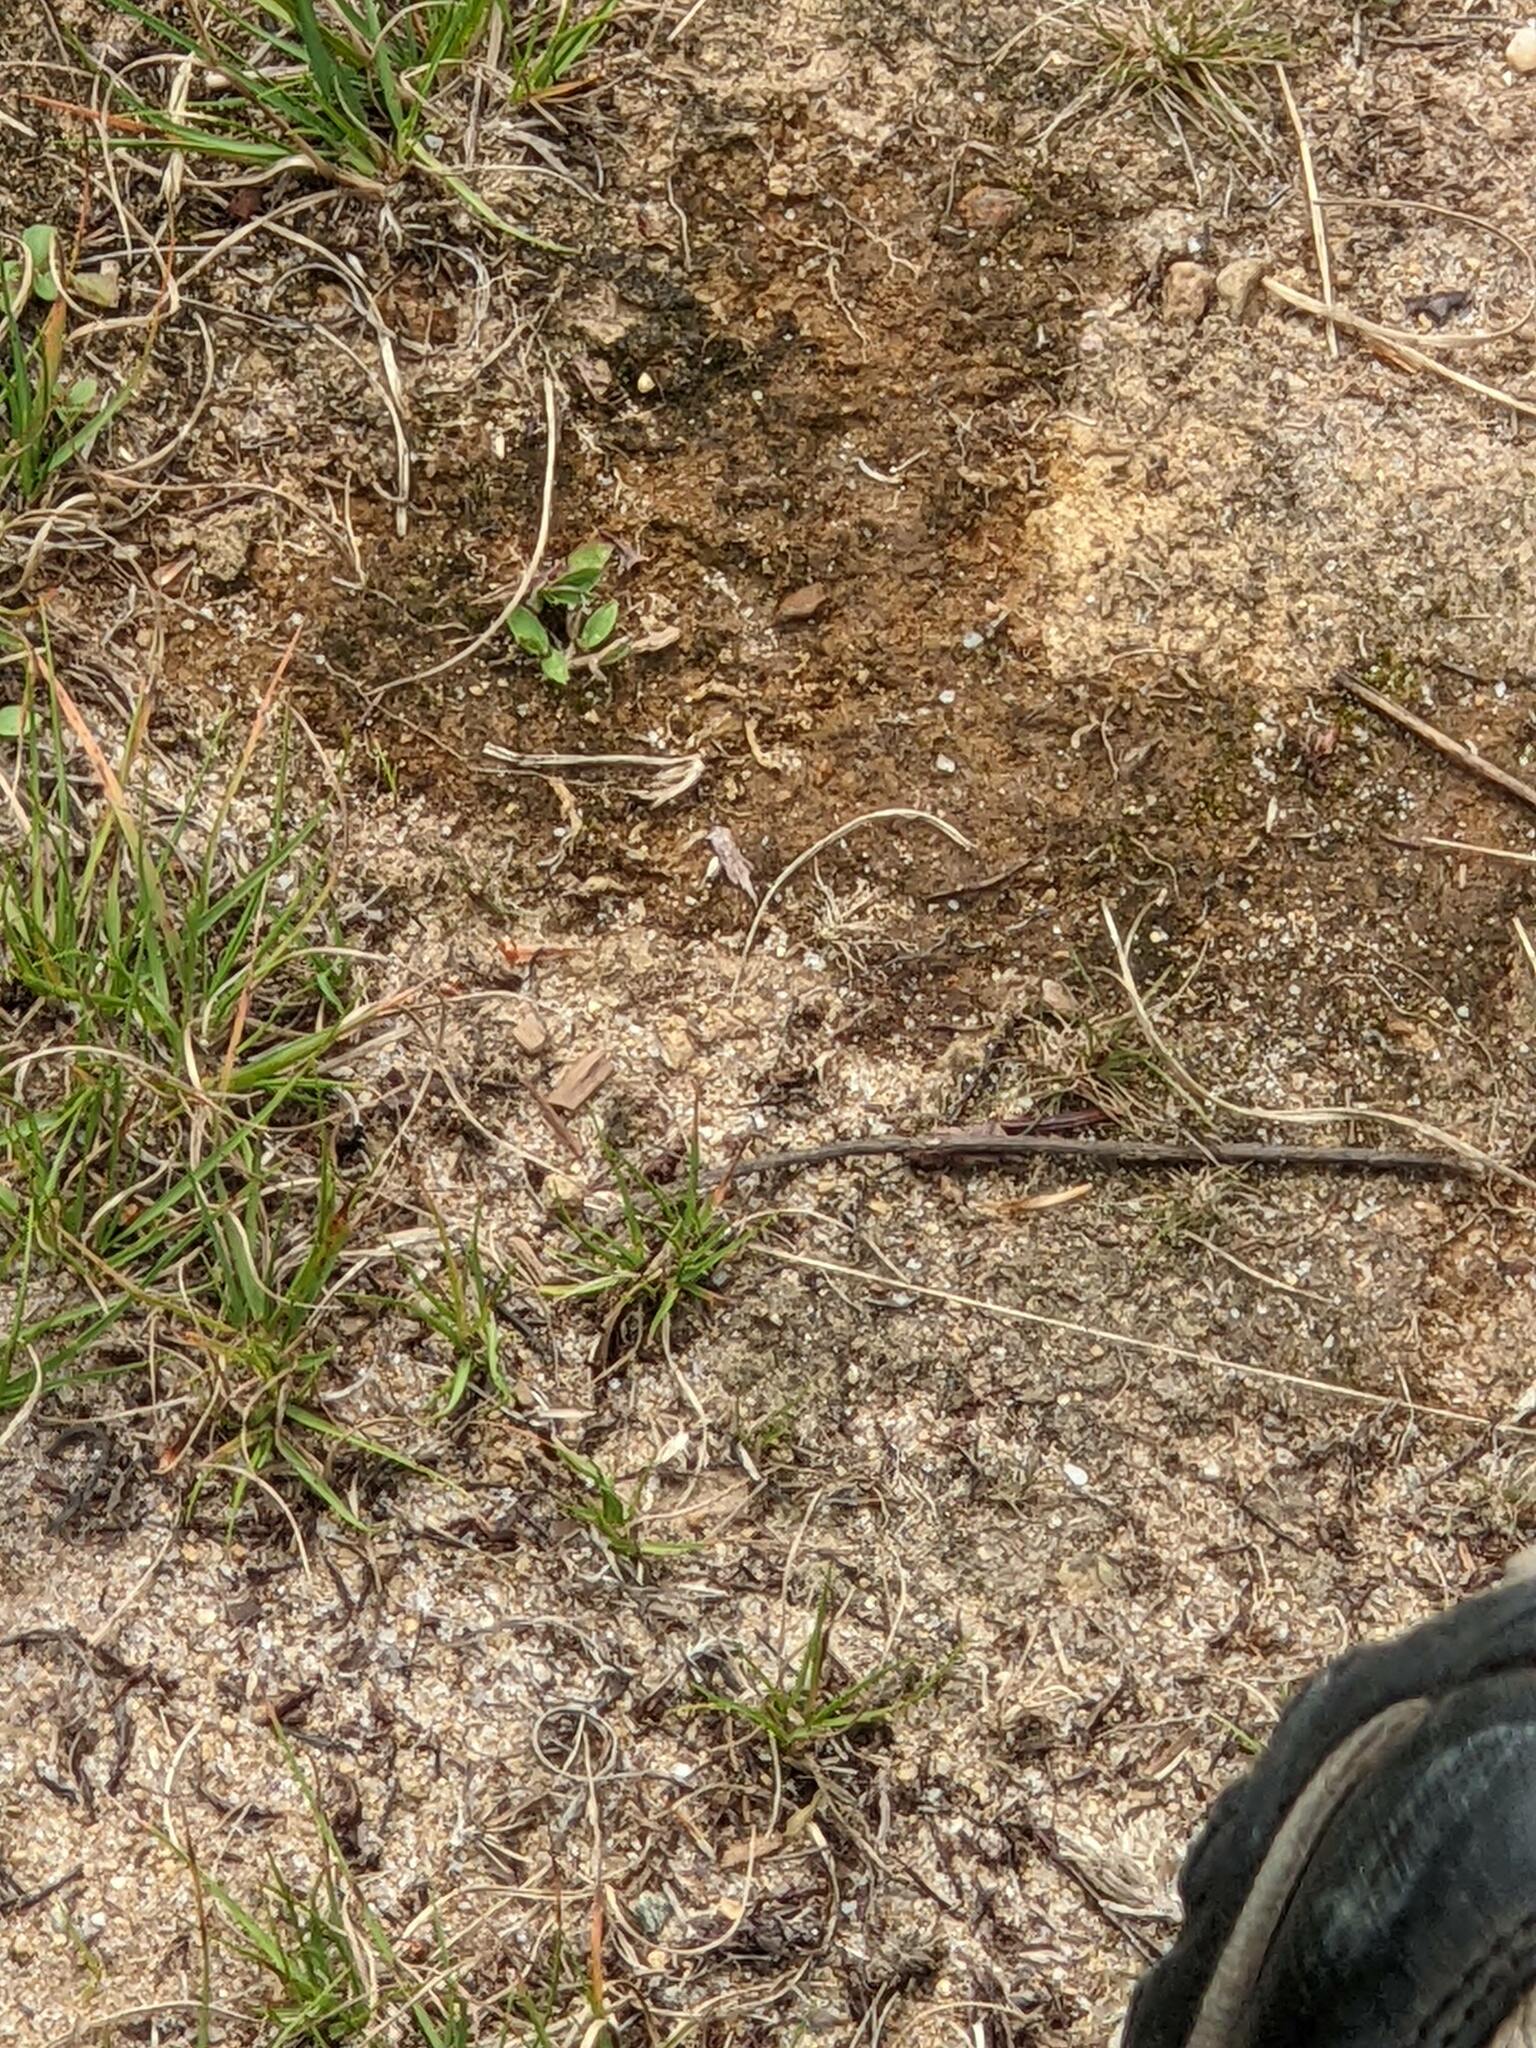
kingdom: Animalia
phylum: Arthropoda
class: Insecta
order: Orthoptera
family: Acrididae
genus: Dissosteira
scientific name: Dissosteira carolina
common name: Carolina grasshopper
